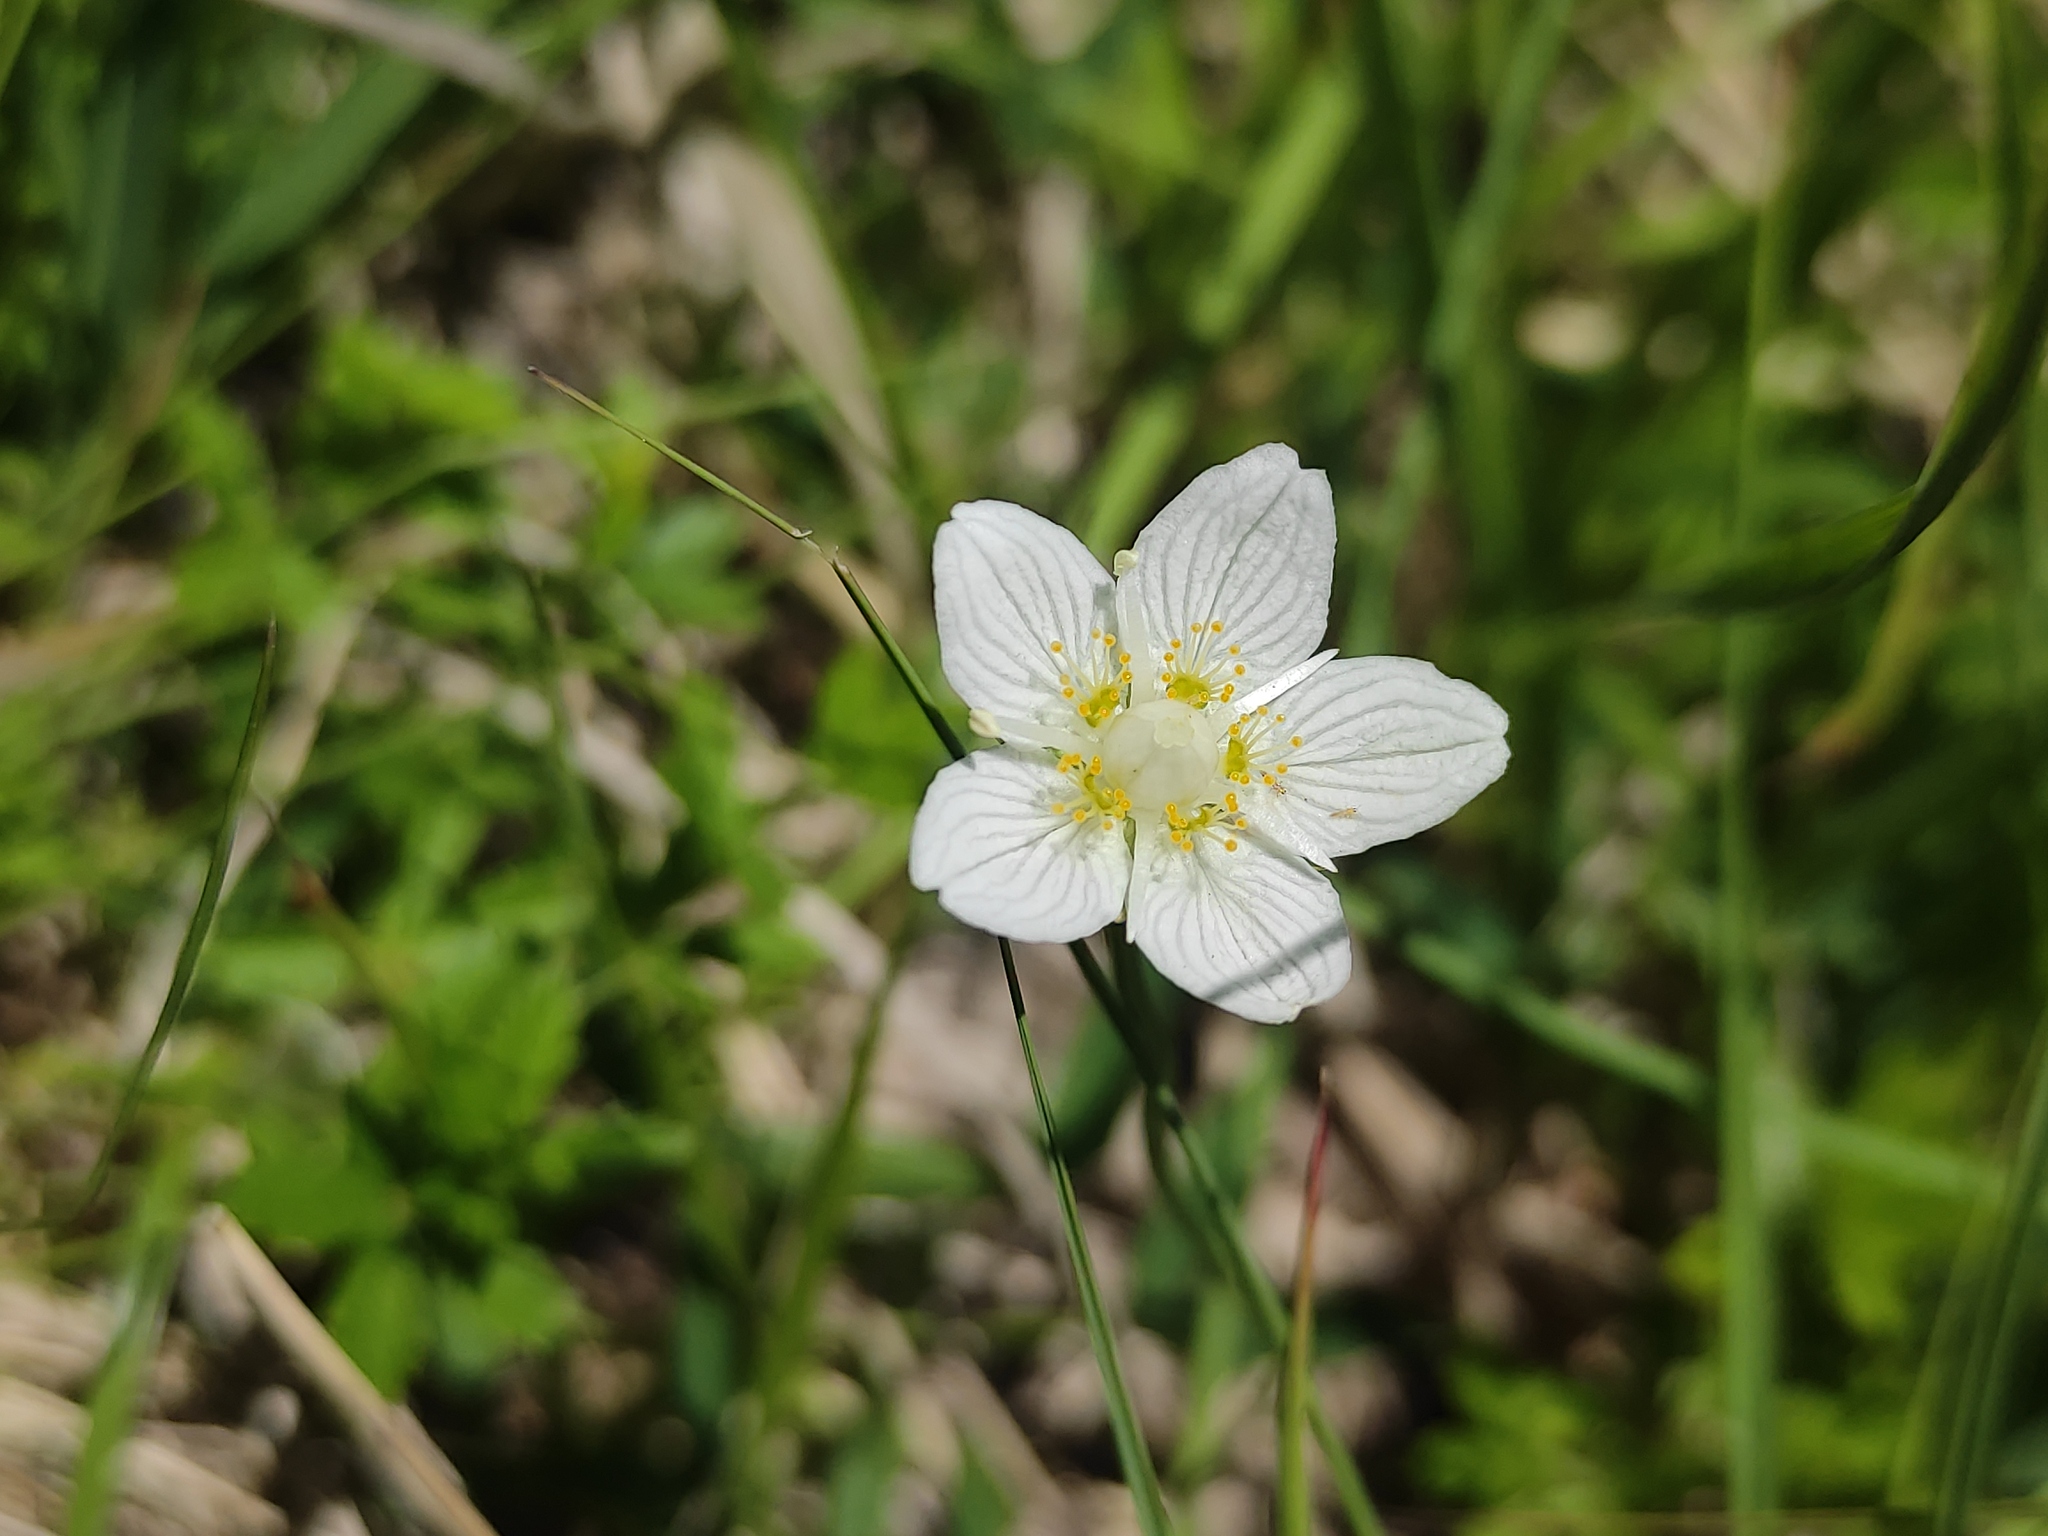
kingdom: Plantae
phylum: Tracheophyta
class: Magnoliopsida
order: Celastrales
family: Parnassiaceae
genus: Parnassia
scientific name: Parnassia palustris
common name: Grass-of-parnassus
